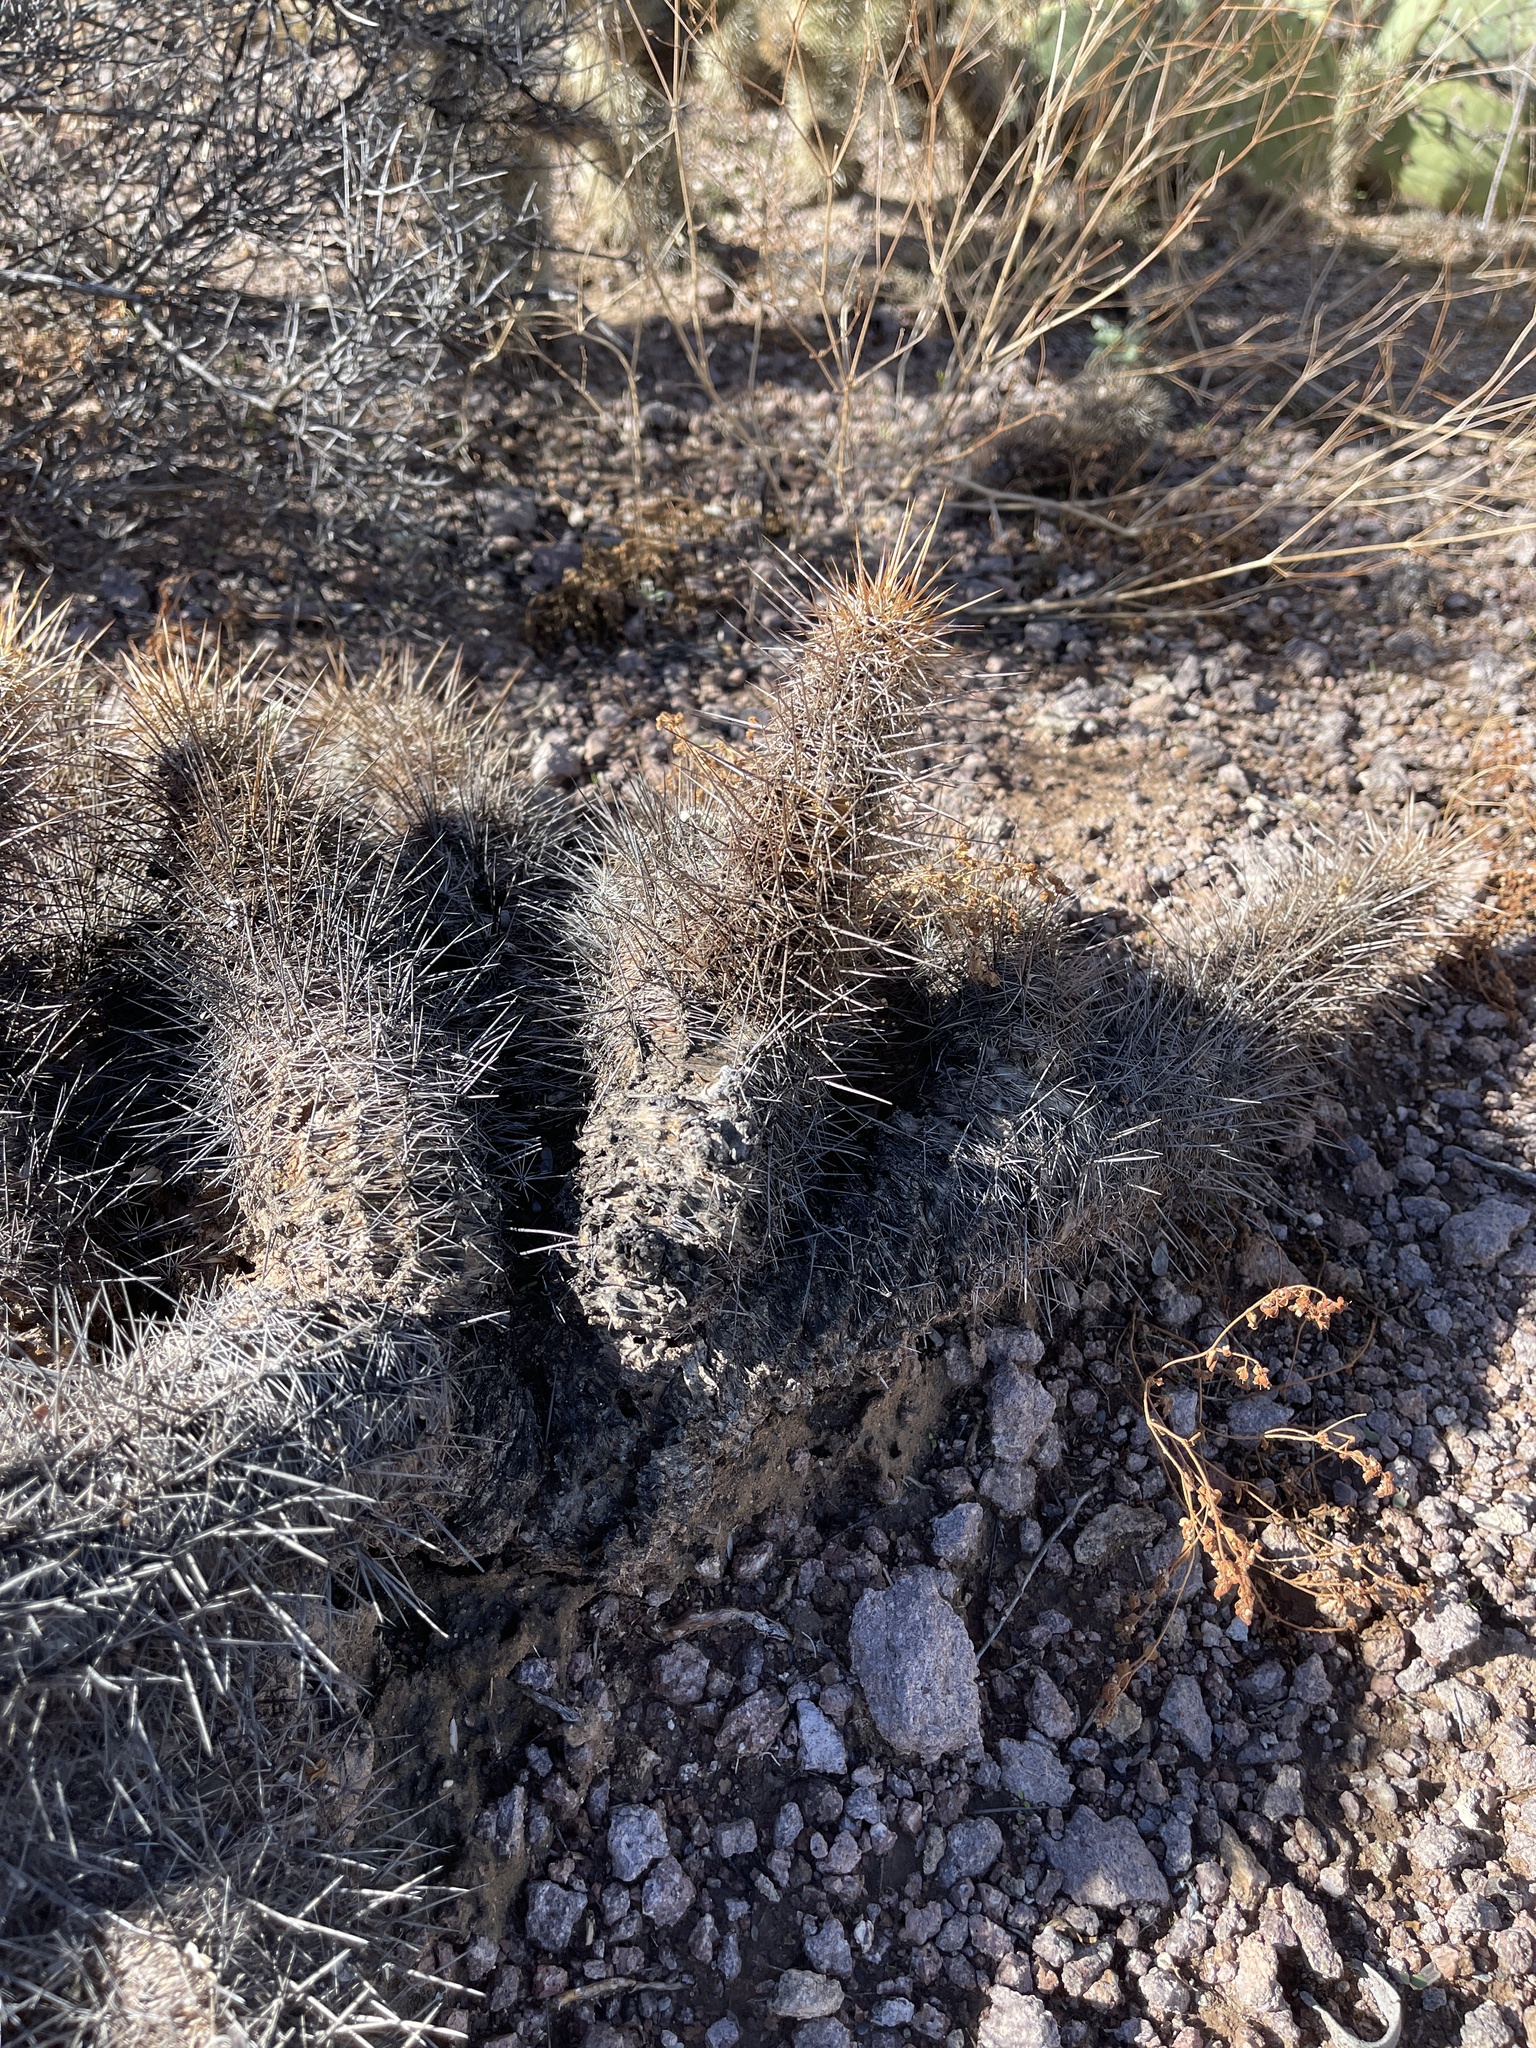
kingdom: Plantae
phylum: Tracheophyta
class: Magnoliopsida
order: Caryophyllales
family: Cactaceae
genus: Echinocereus
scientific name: Echinocereus fasciculatus
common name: Bundle hedgehog
